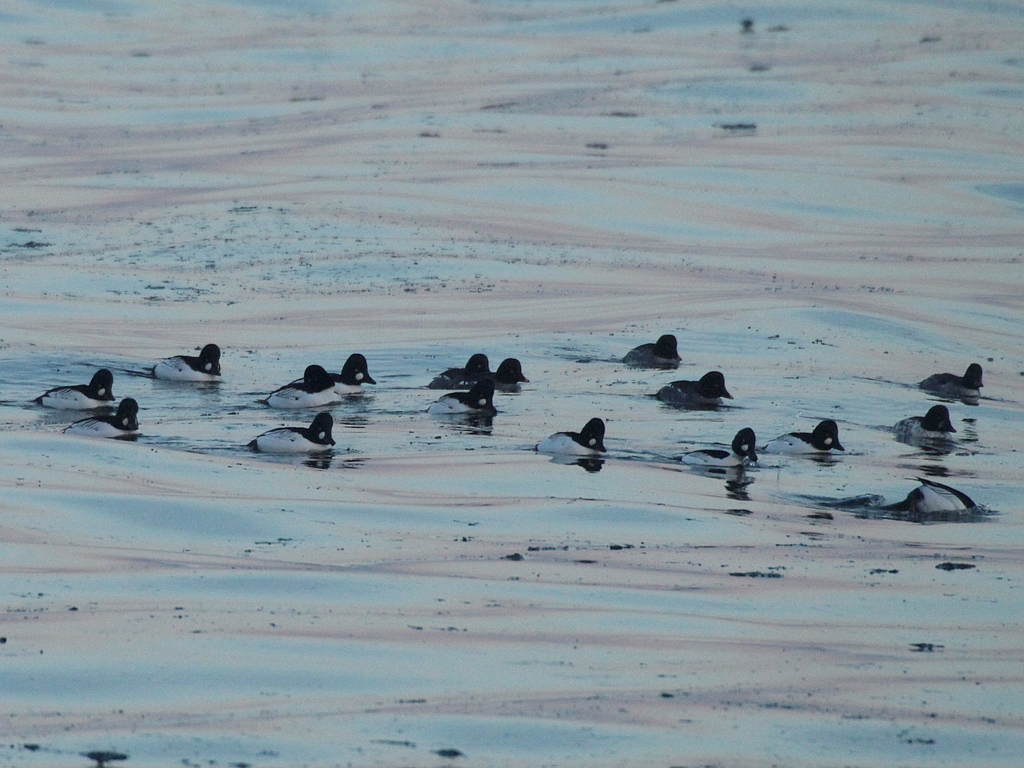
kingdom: Animalia
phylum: Chordata
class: Aves
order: Anseriformes
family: Anatidae
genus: Bucephala
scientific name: Bucephala clangula
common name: Common goldeneye
